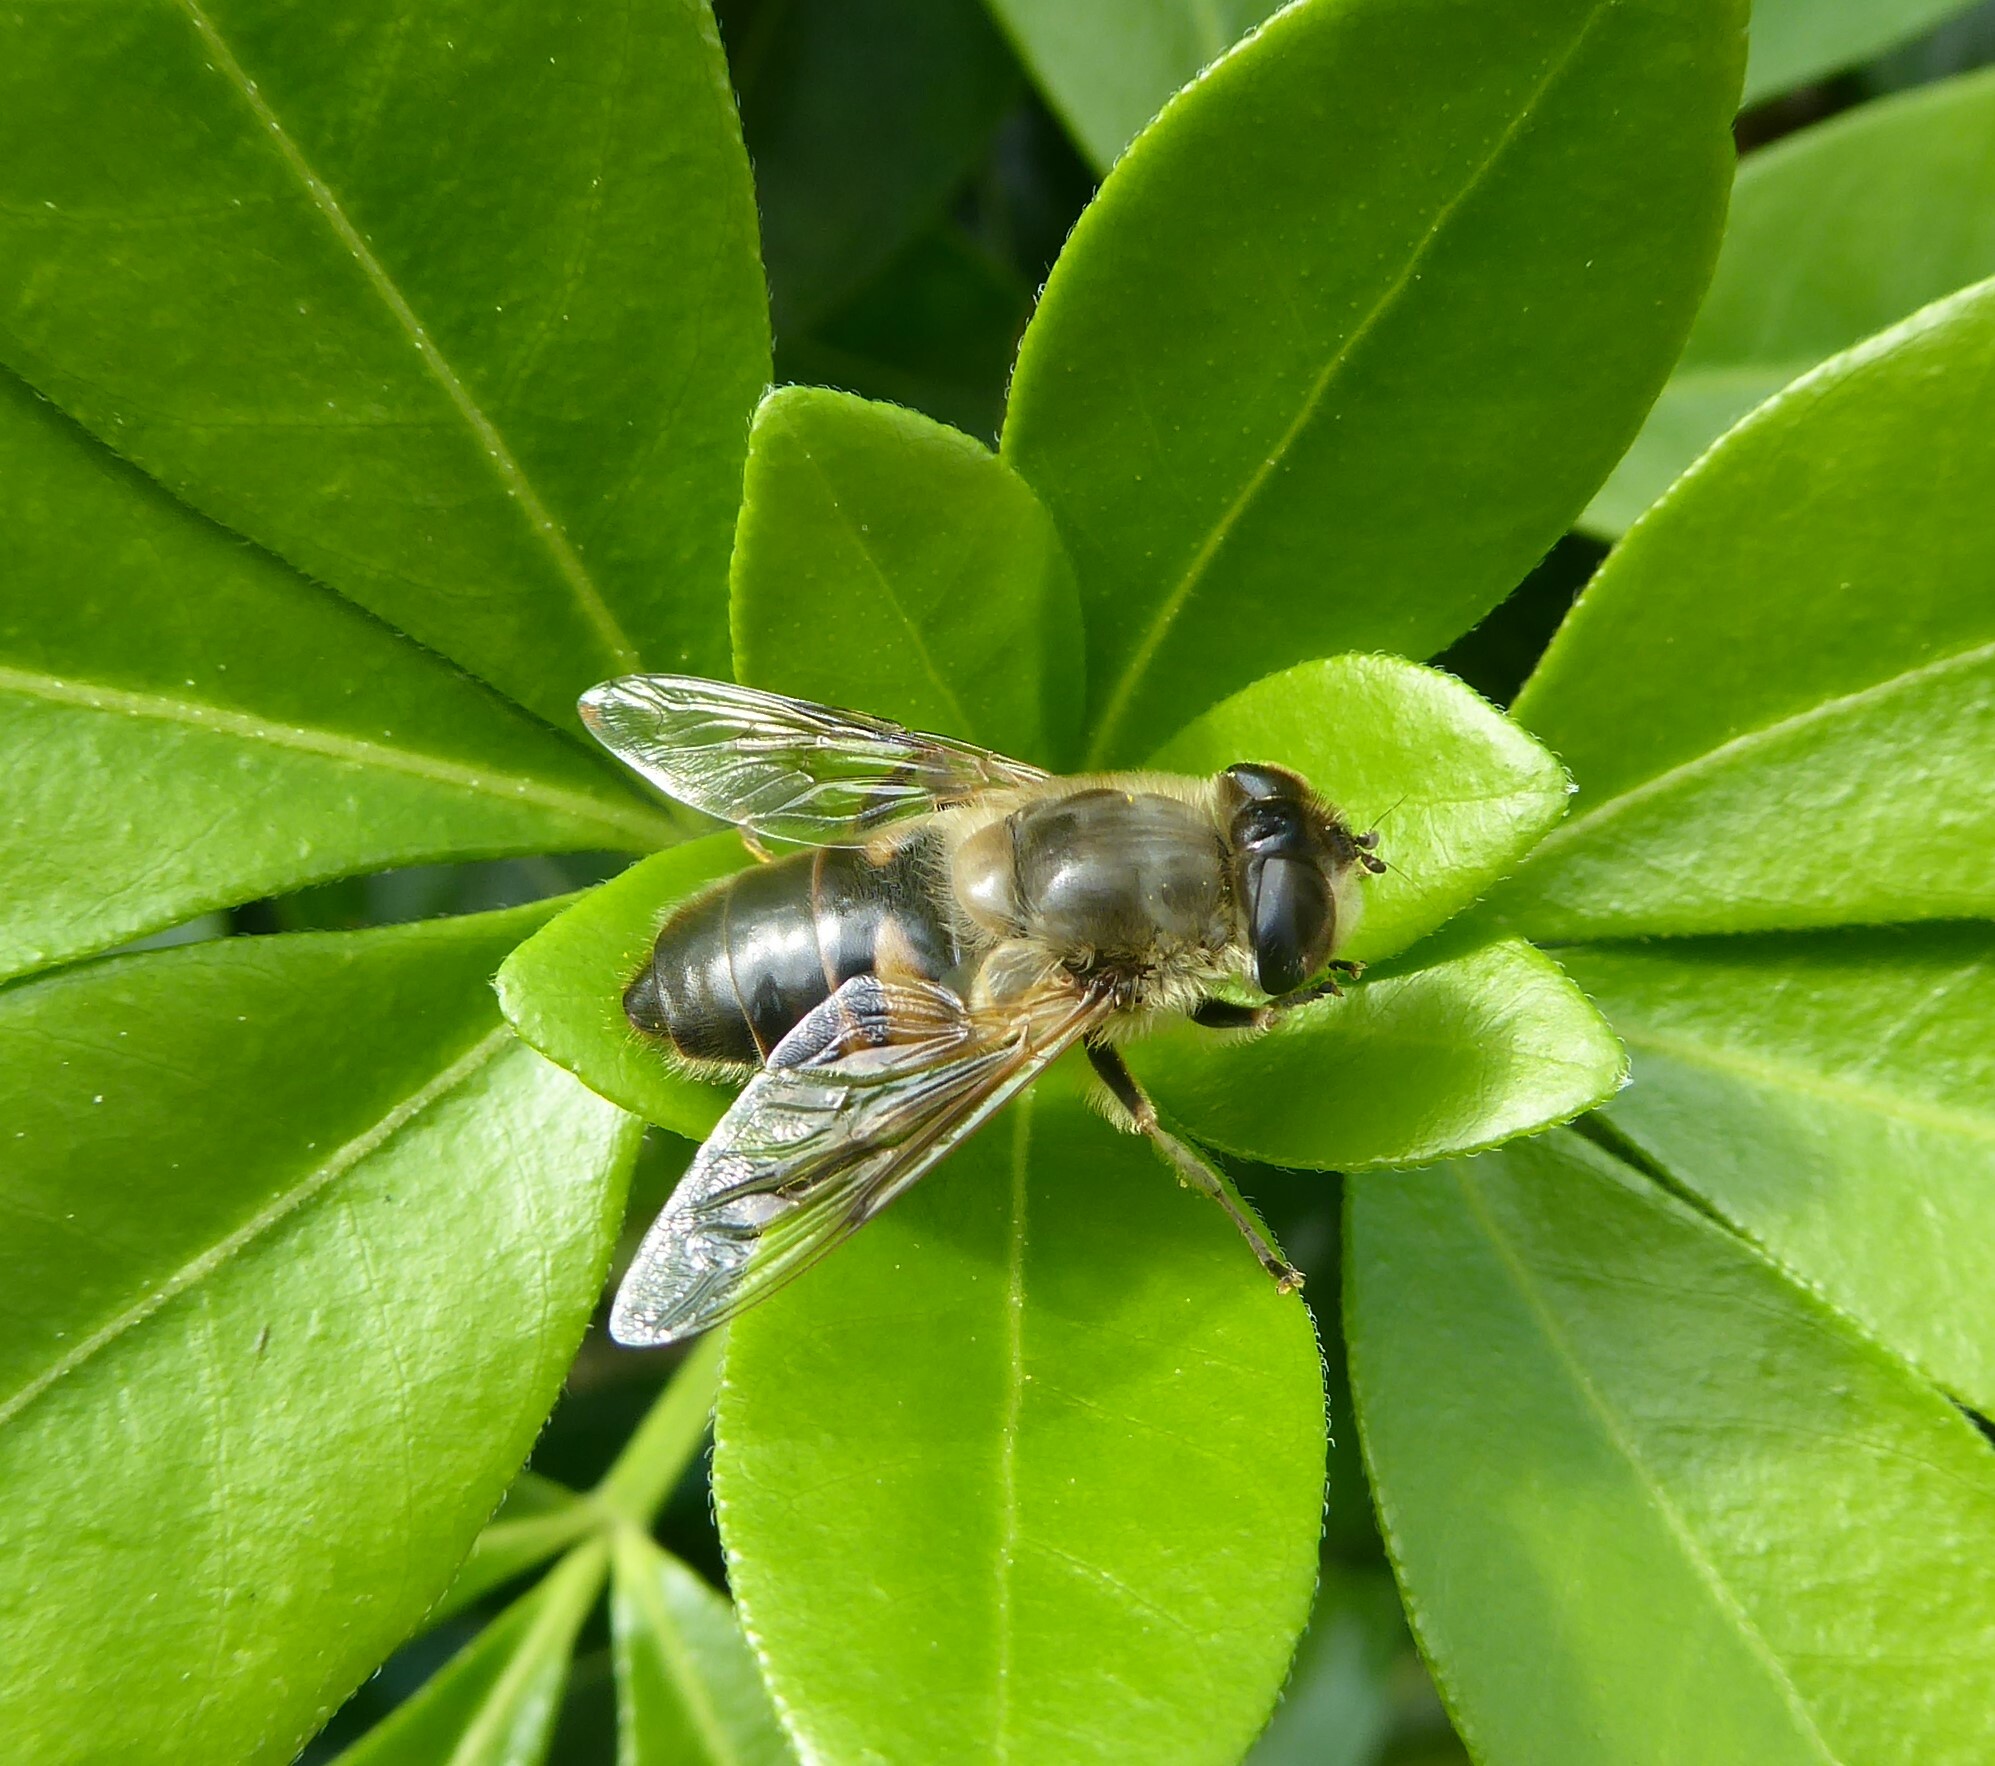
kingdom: Animalia
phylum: Arthropoda
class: Insecta
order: Diptera
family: Syrphidae
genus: Eristalis
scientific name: Eristalis tenax
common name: Drone fly
